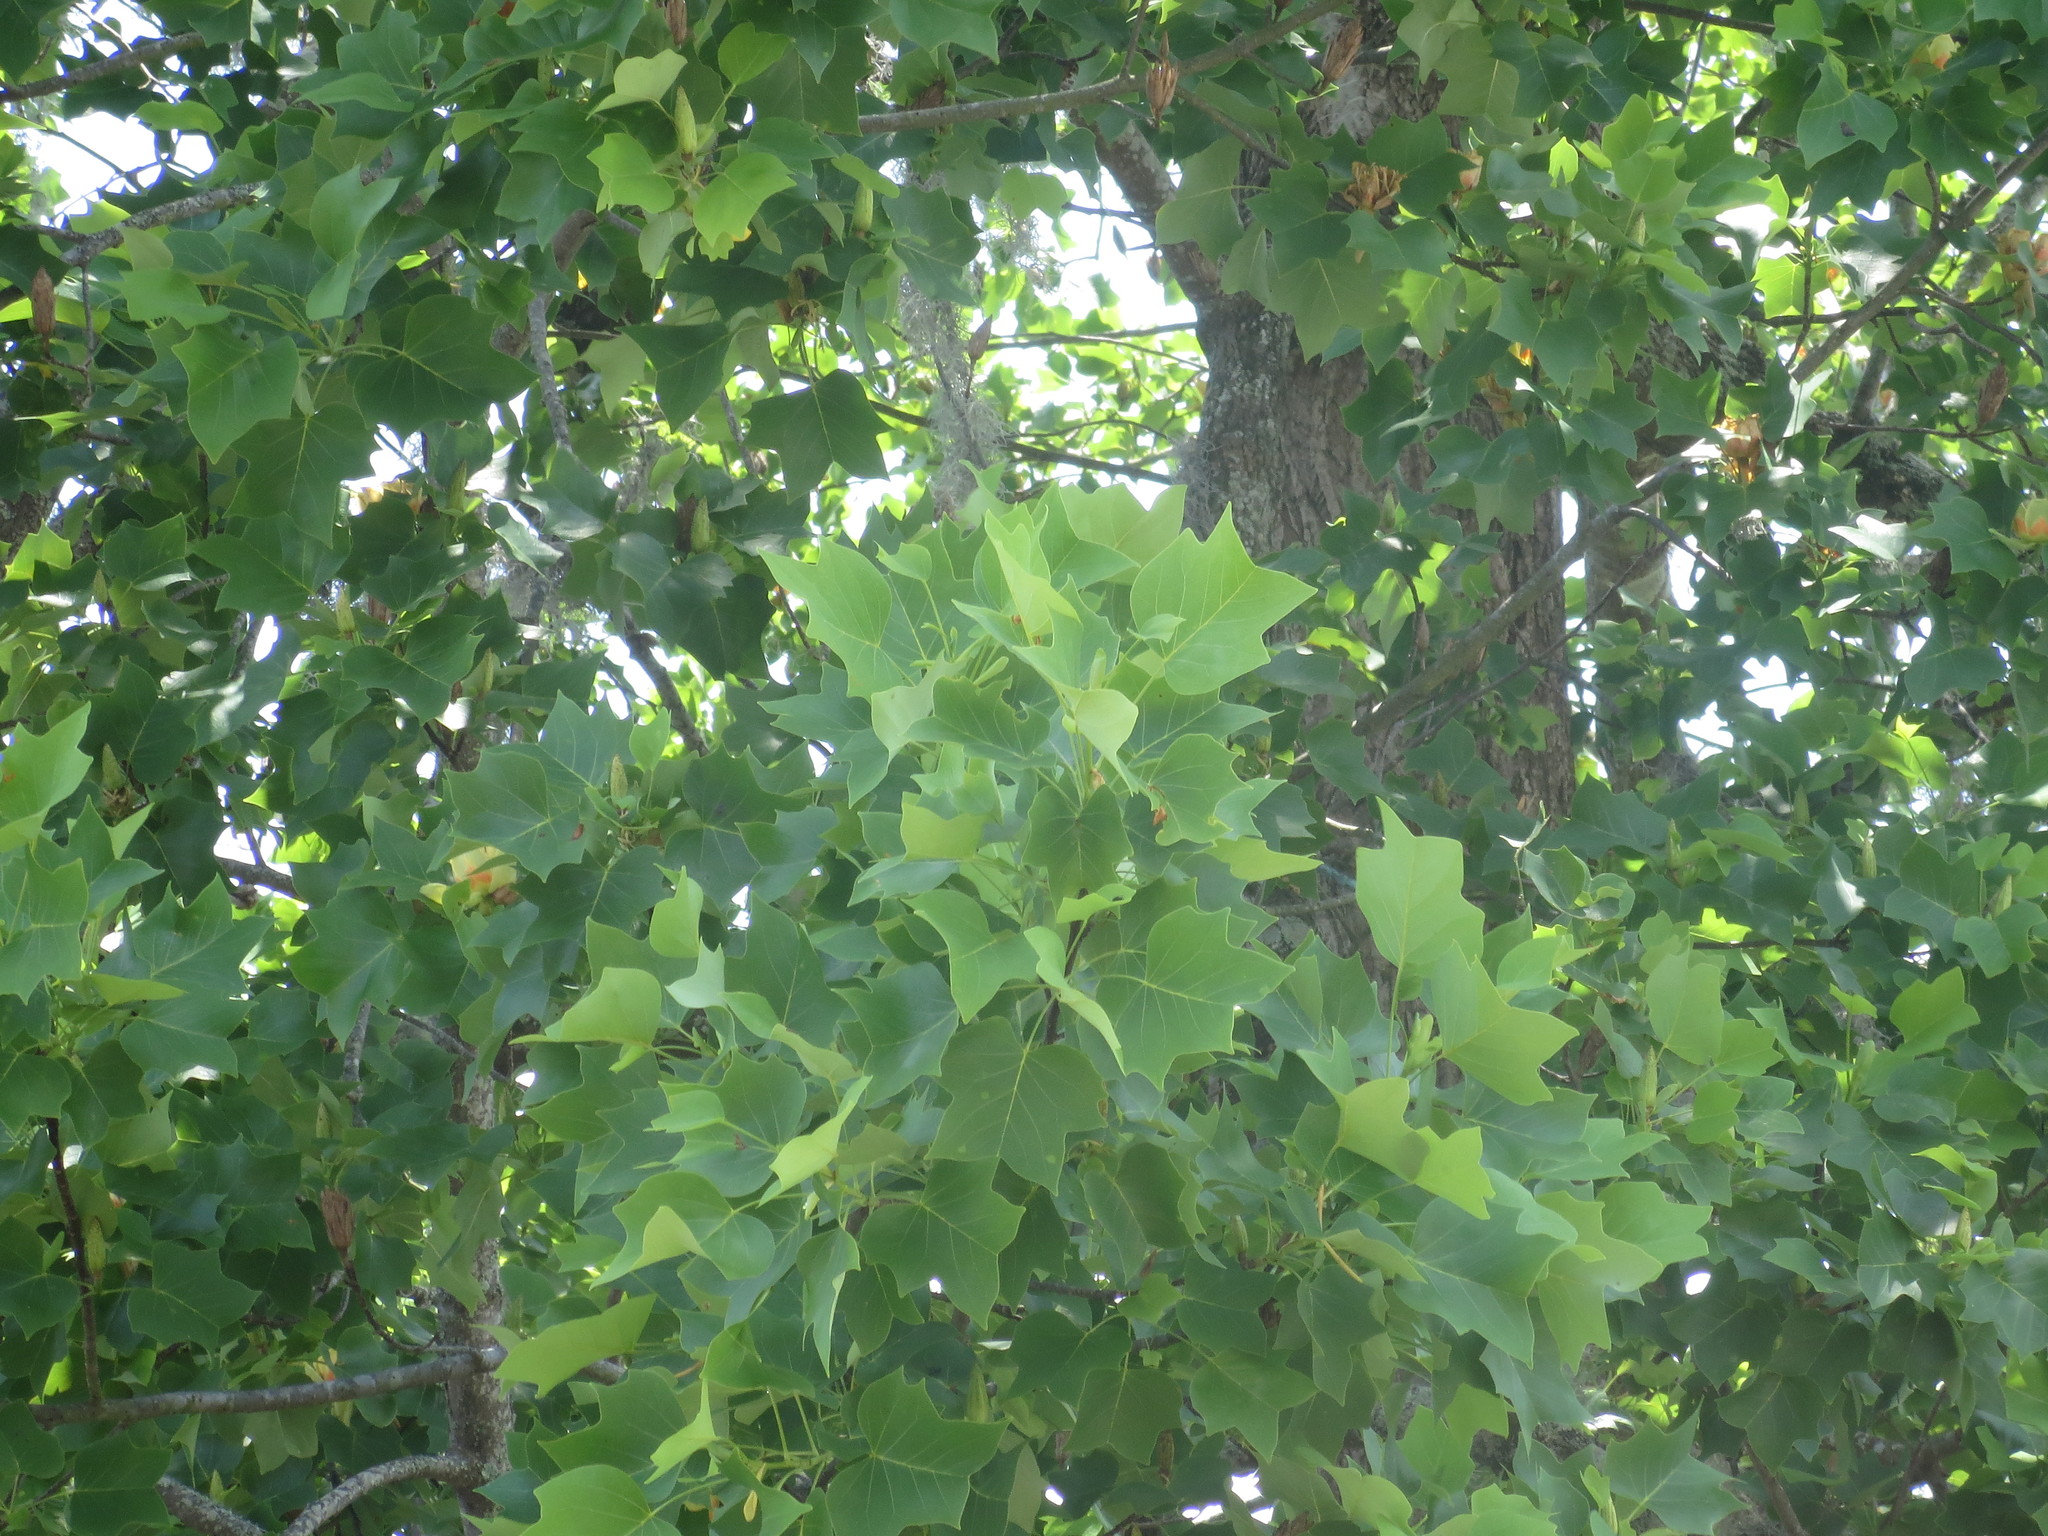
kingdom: Plantae
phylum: Tracheophyta
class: Magnoliopsida
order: Magnoliales
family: Magnoliaceae
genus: Liriodendron
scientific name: Liriodendron tulipifera
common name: Tulip tree
